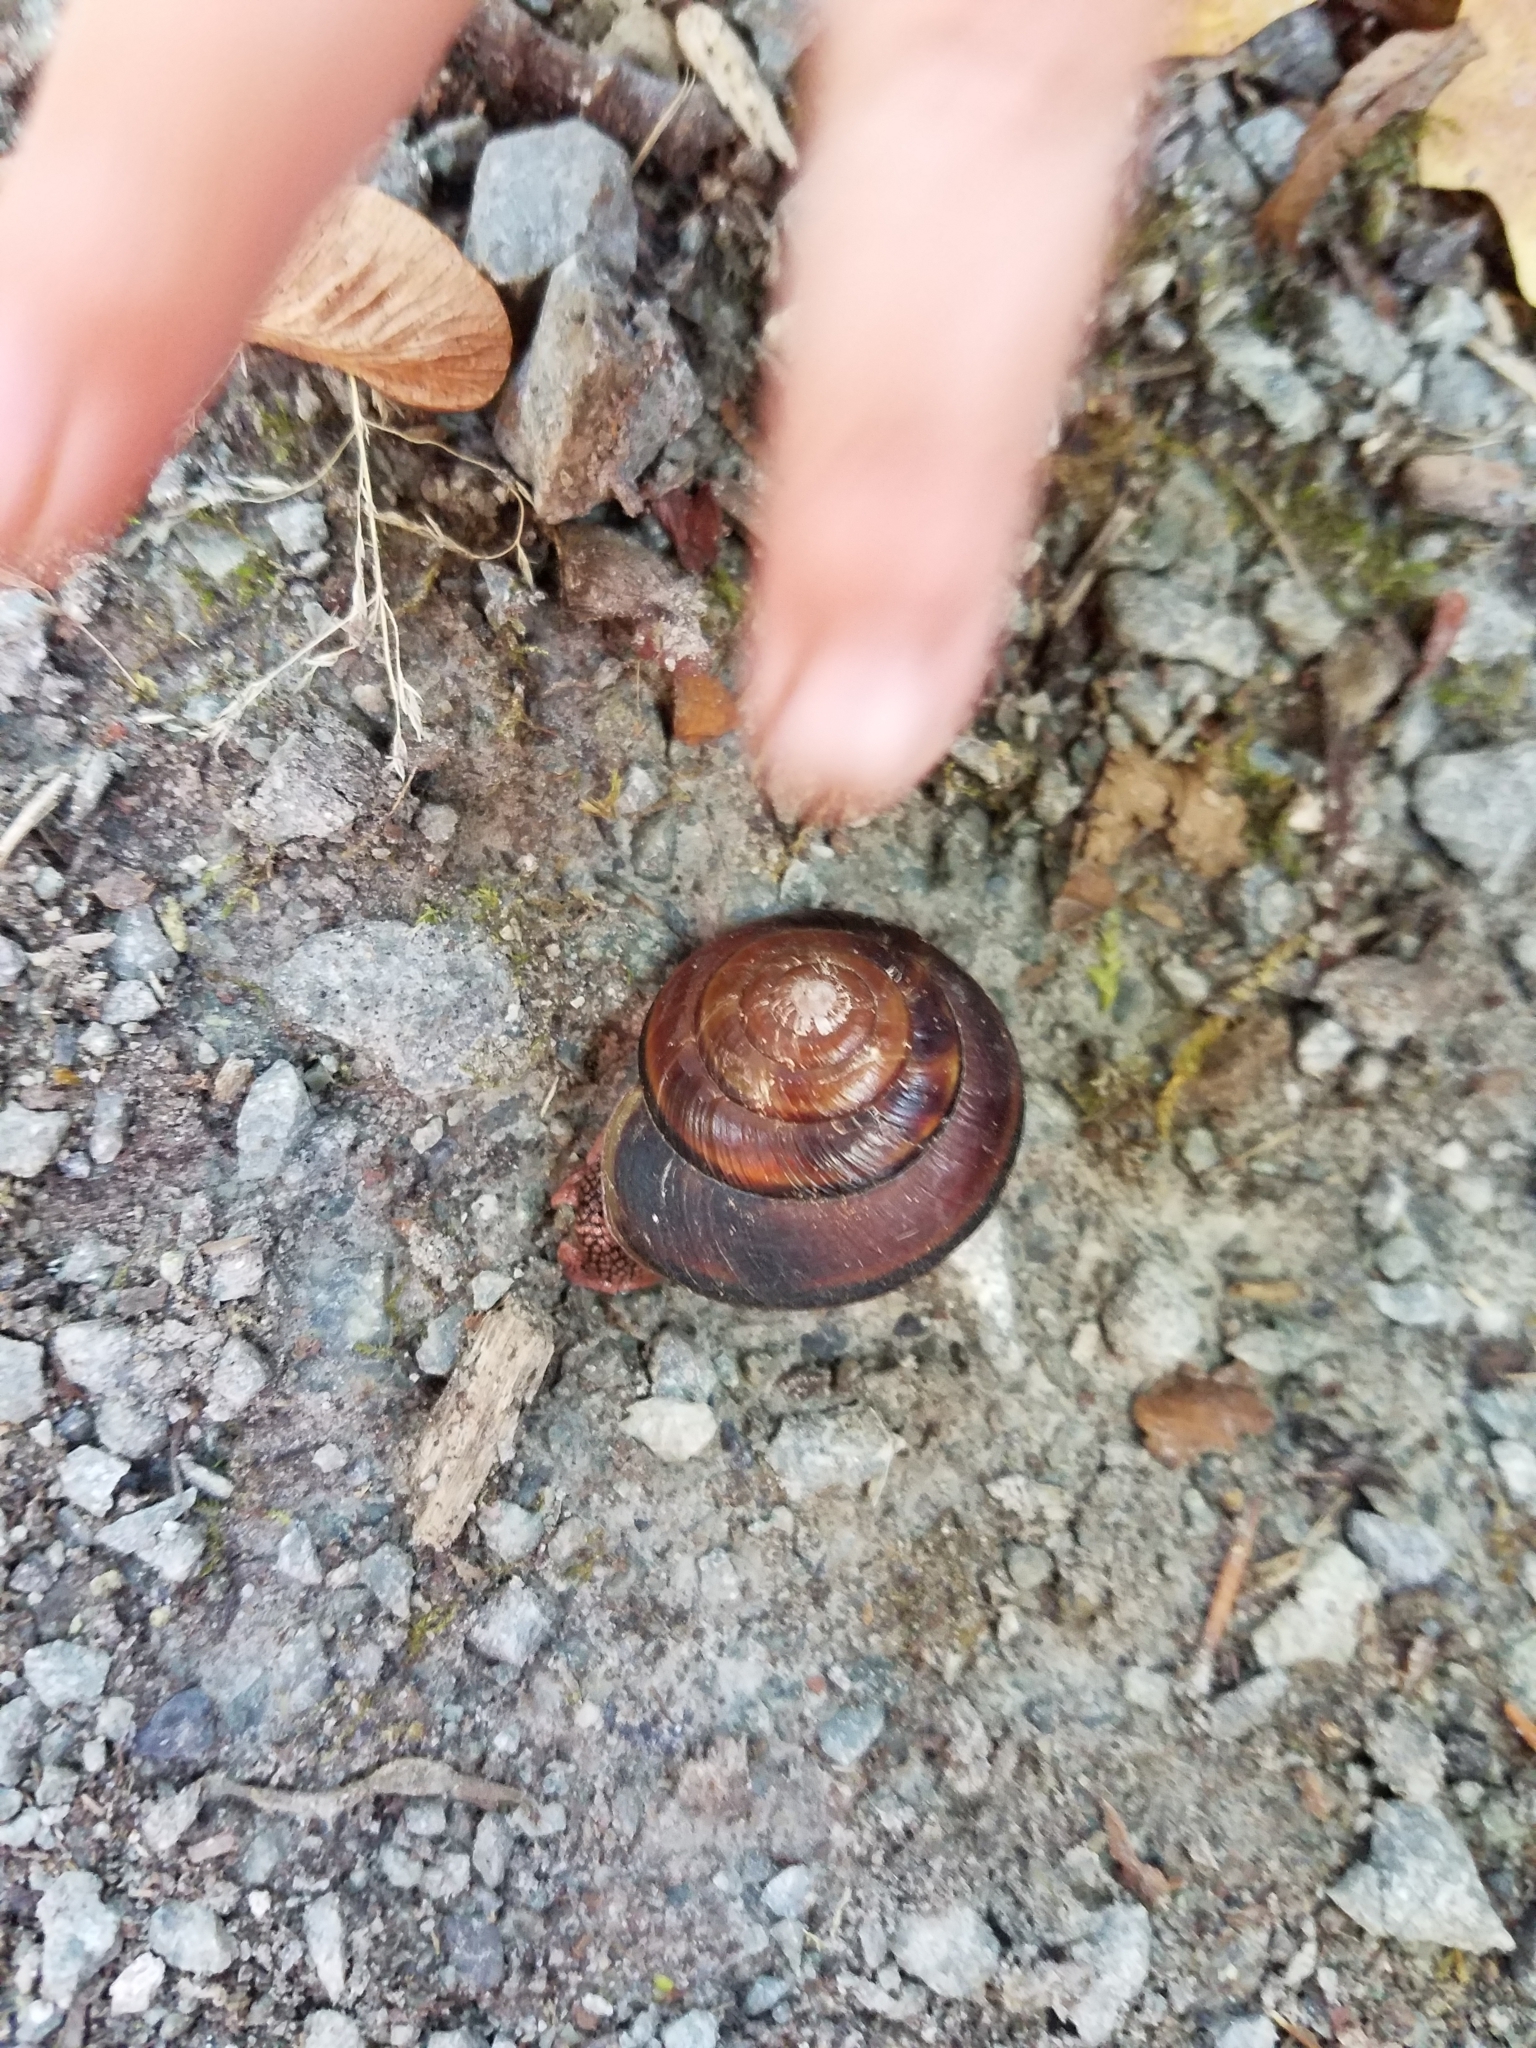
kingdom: Animalia
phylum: Mollusca
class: Gastropoda
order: Stylommatophora
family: Xanthonychidae
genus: Monadenia
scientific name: Monadenia fidelis
